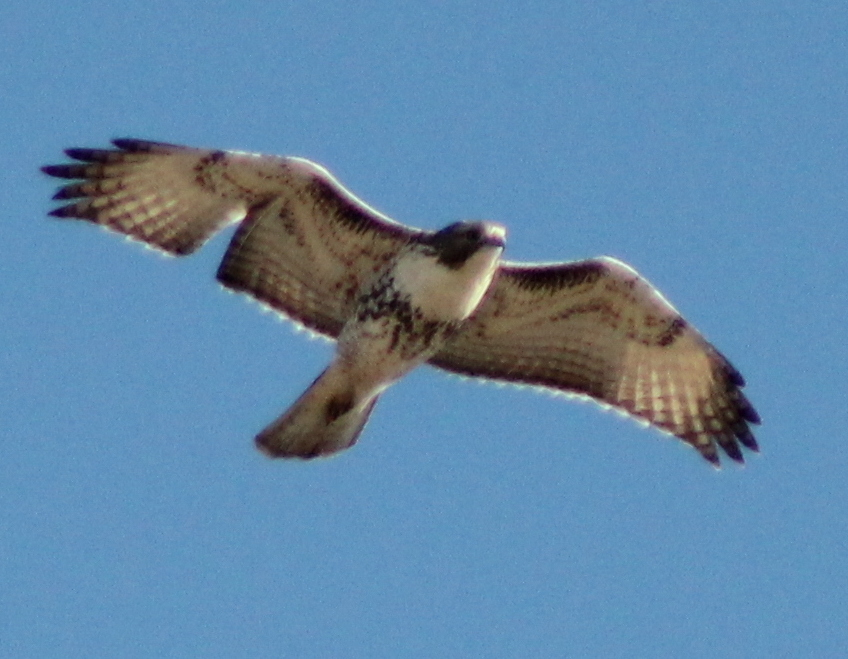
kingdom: Animalia
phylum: Chordata
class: Aves
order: Accipitriformes
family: Accipitridae
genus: Buteo
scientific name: Buteo jamaicensis
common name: Red-tailed hawk
